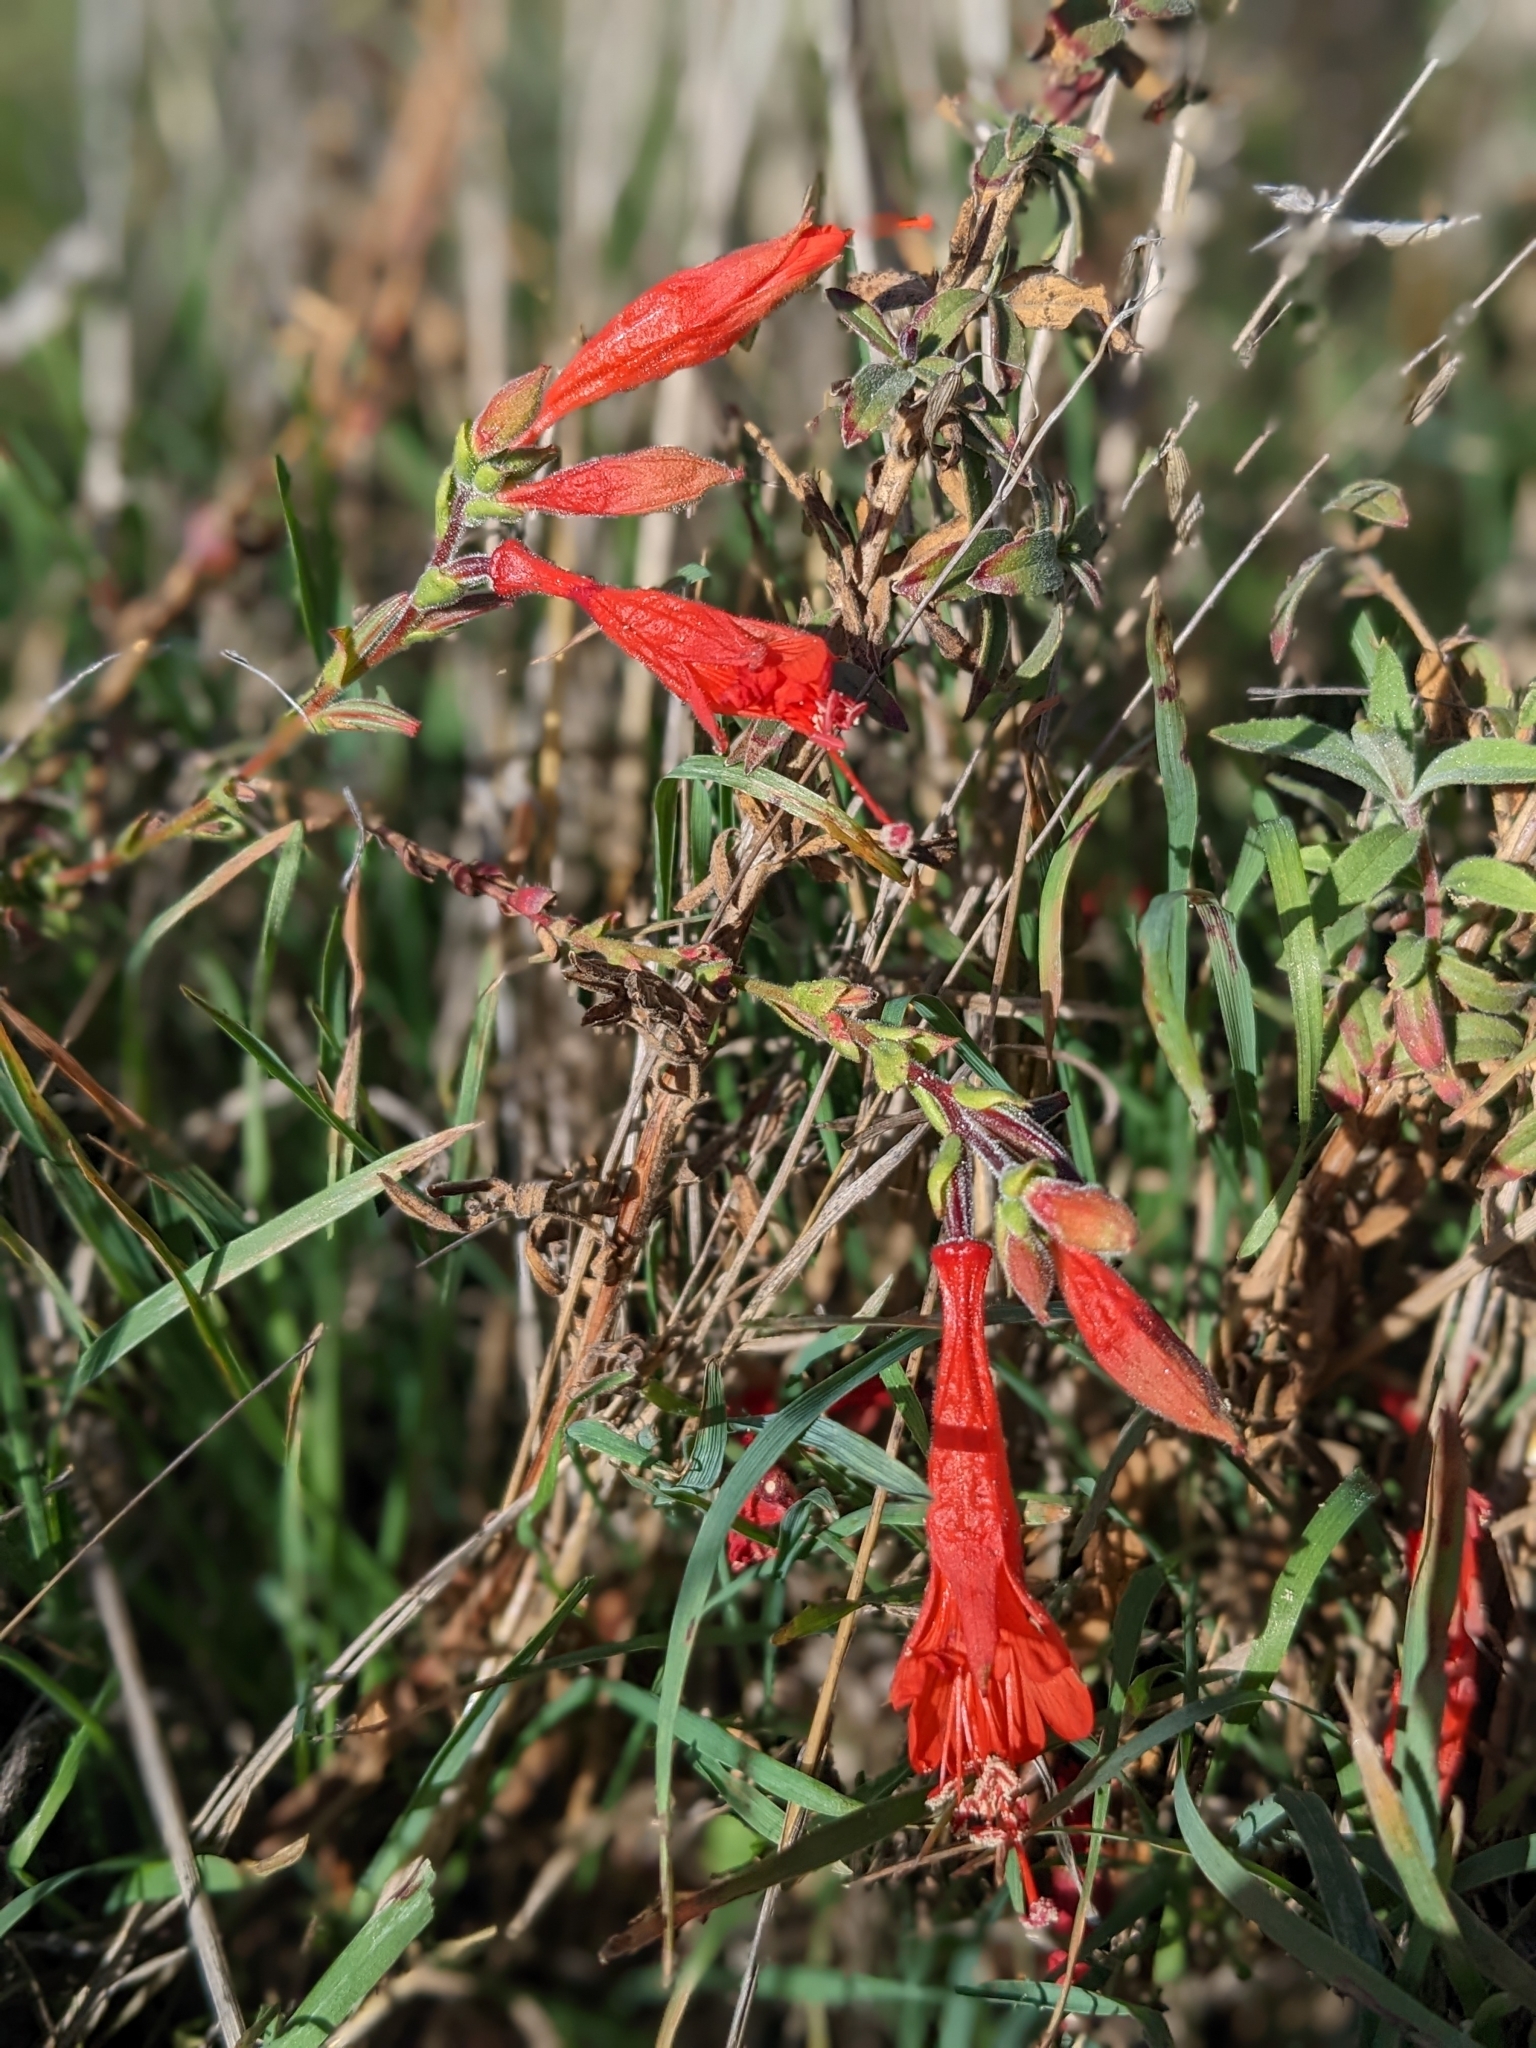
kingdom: Plantae
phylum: Tracheophyta
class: Magnoliopsida
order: Myrtales
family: Onagraceae
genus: Epilobium
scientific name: Epilobium canum
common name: California-fuchsia
